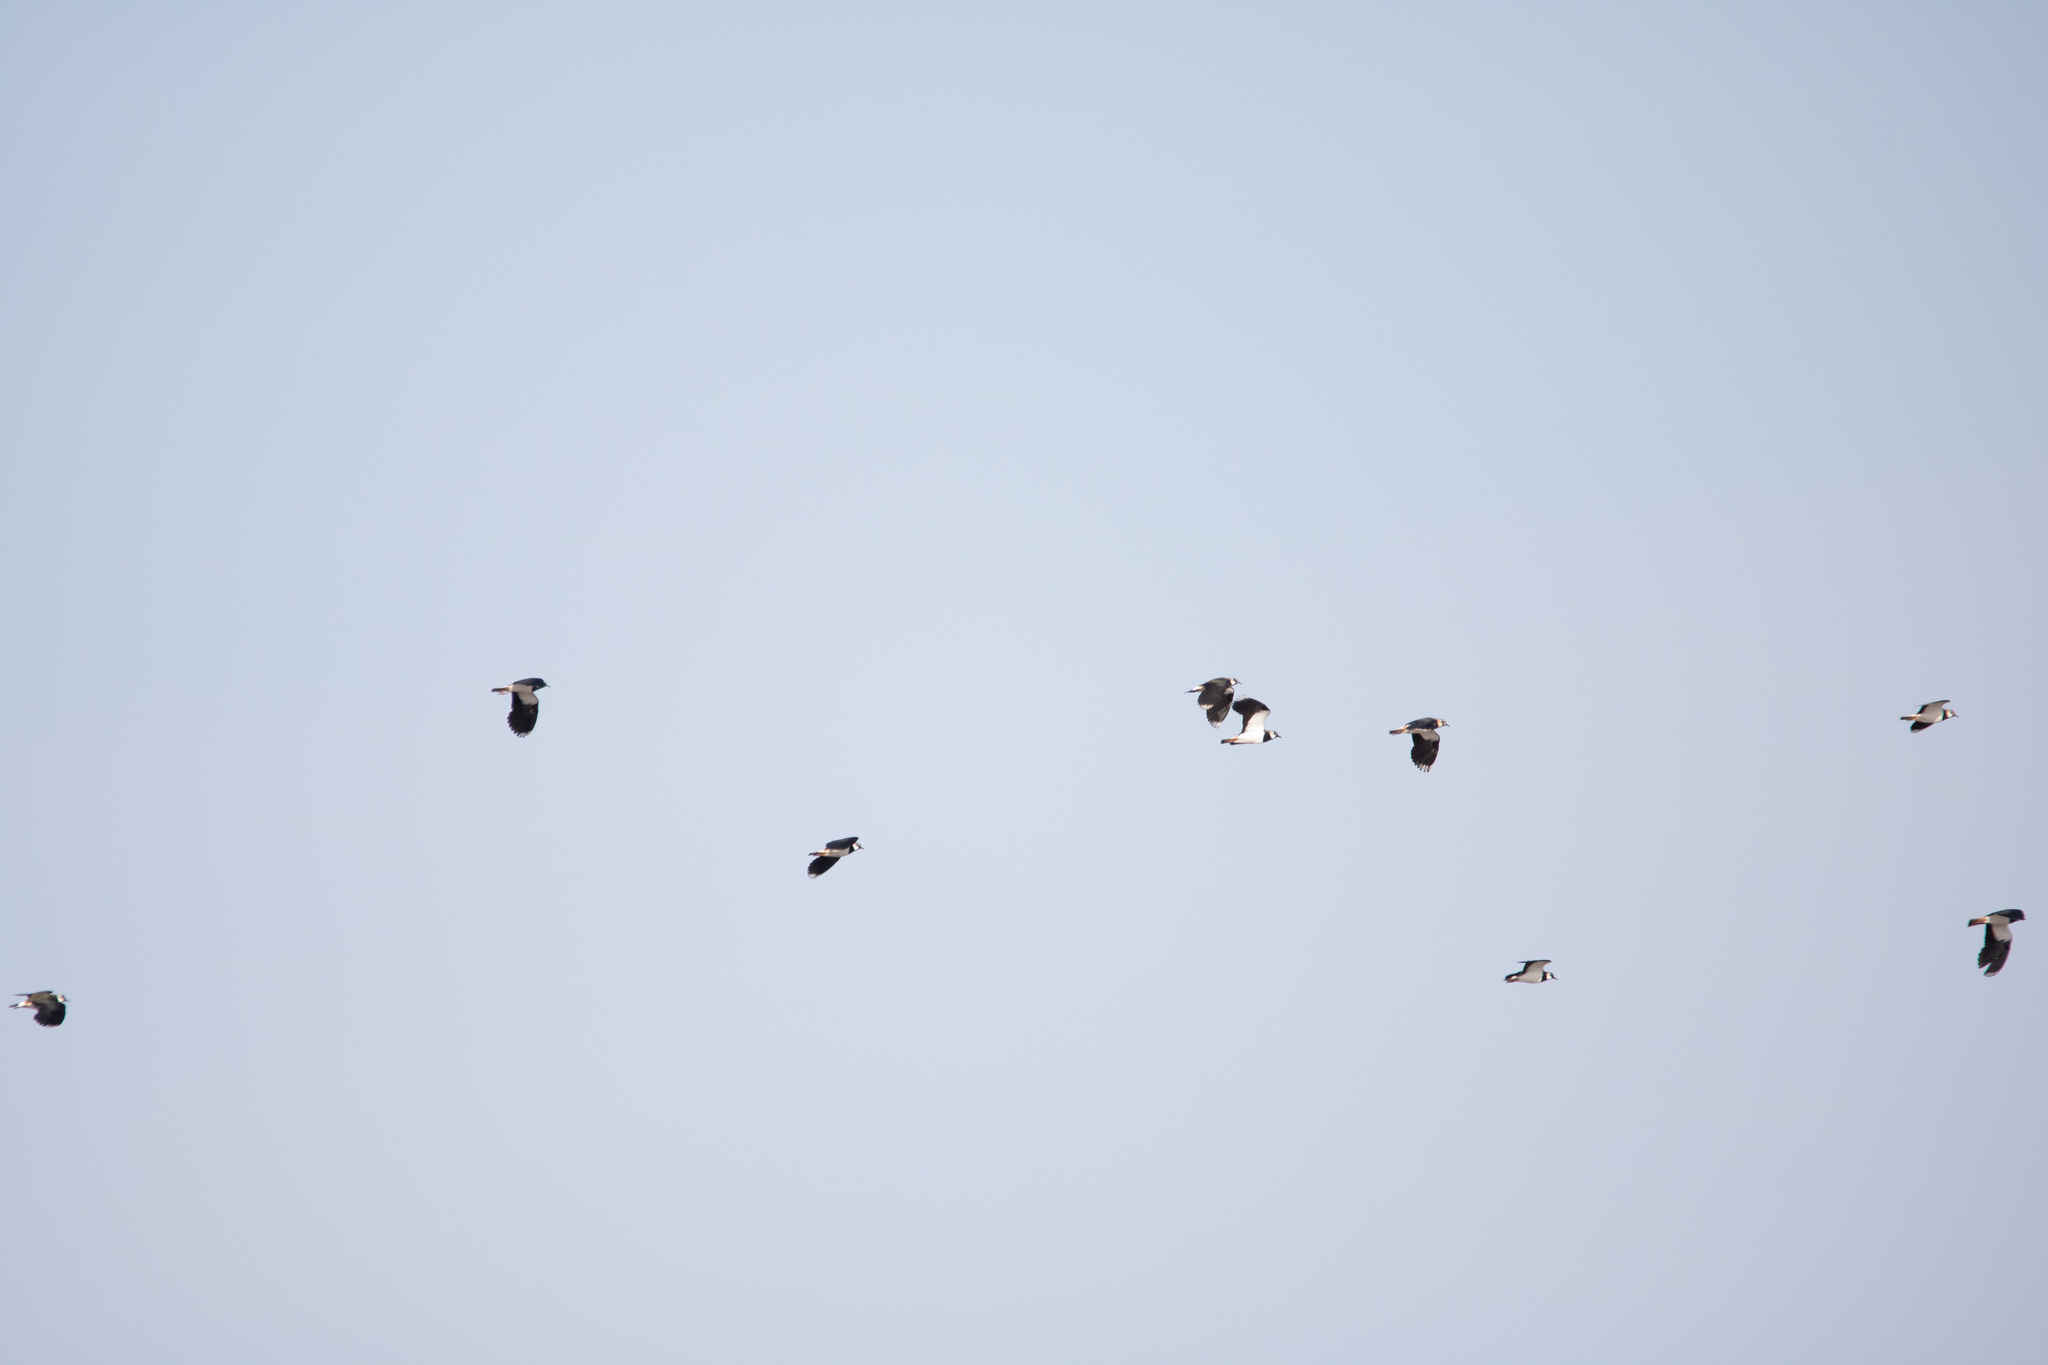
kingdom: Animalia
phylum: Chordata
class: Aves
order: Charadriiformes
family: Charadriidae
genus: Vanellus
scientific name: Vanellus vanellus
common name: Northern lapwing
